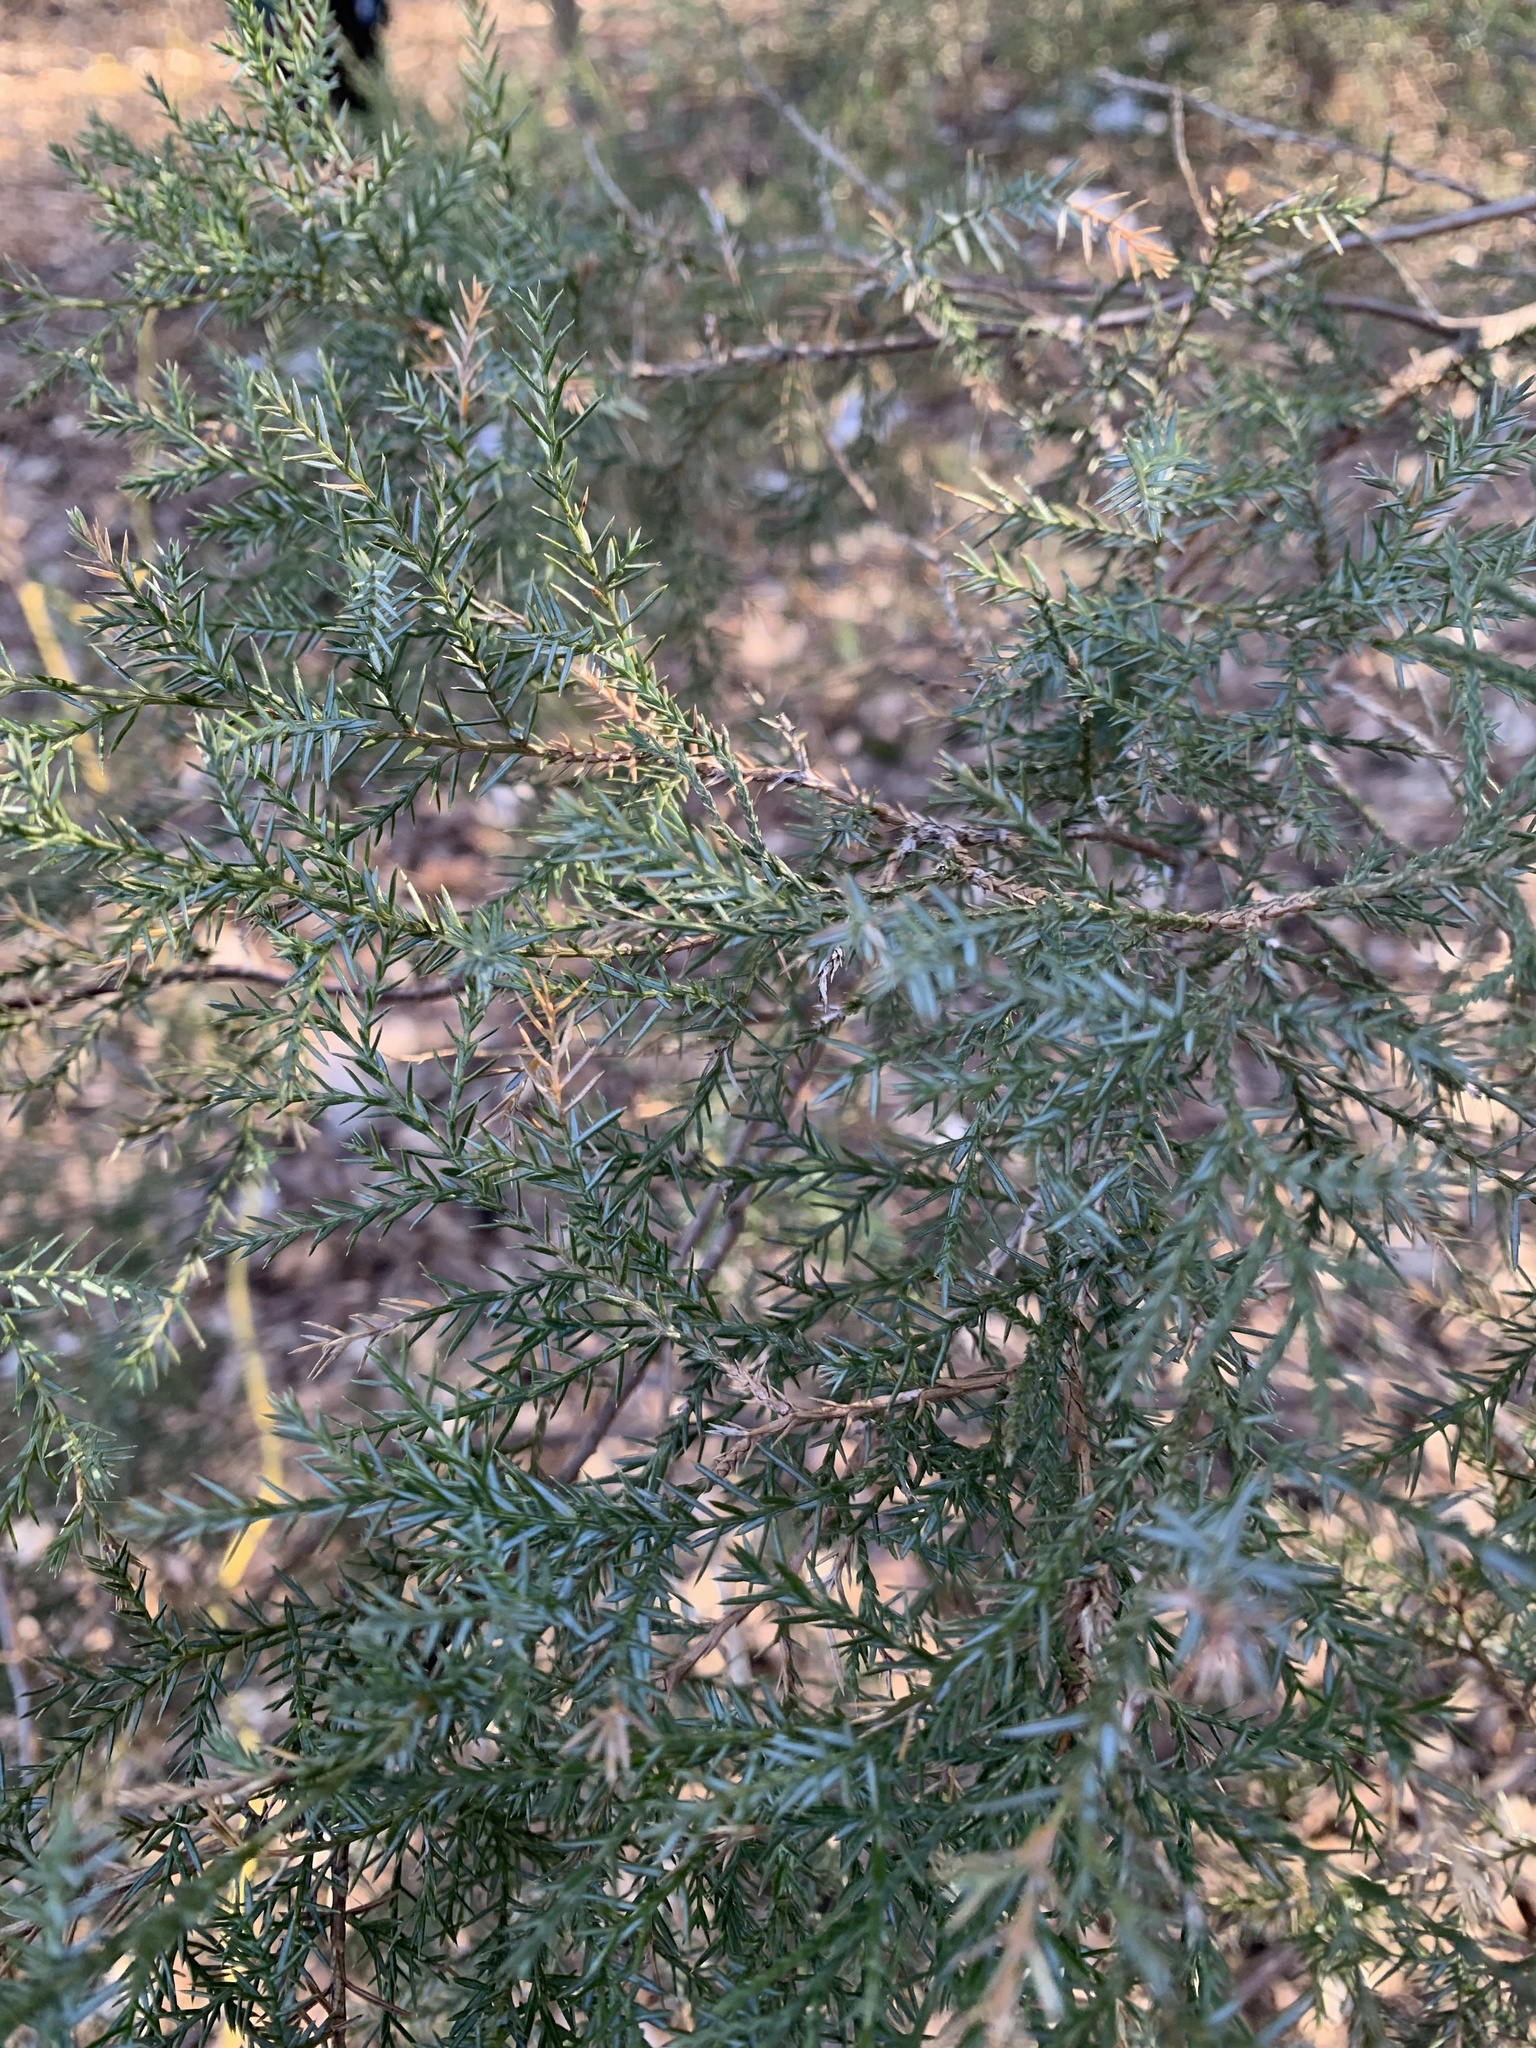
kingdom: Plantae
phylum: Tracheophyta
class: Pinopsida
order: Pinales
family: Cupressaceae
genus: Juniperus
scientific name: Juniperus communis
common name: Common juniper
